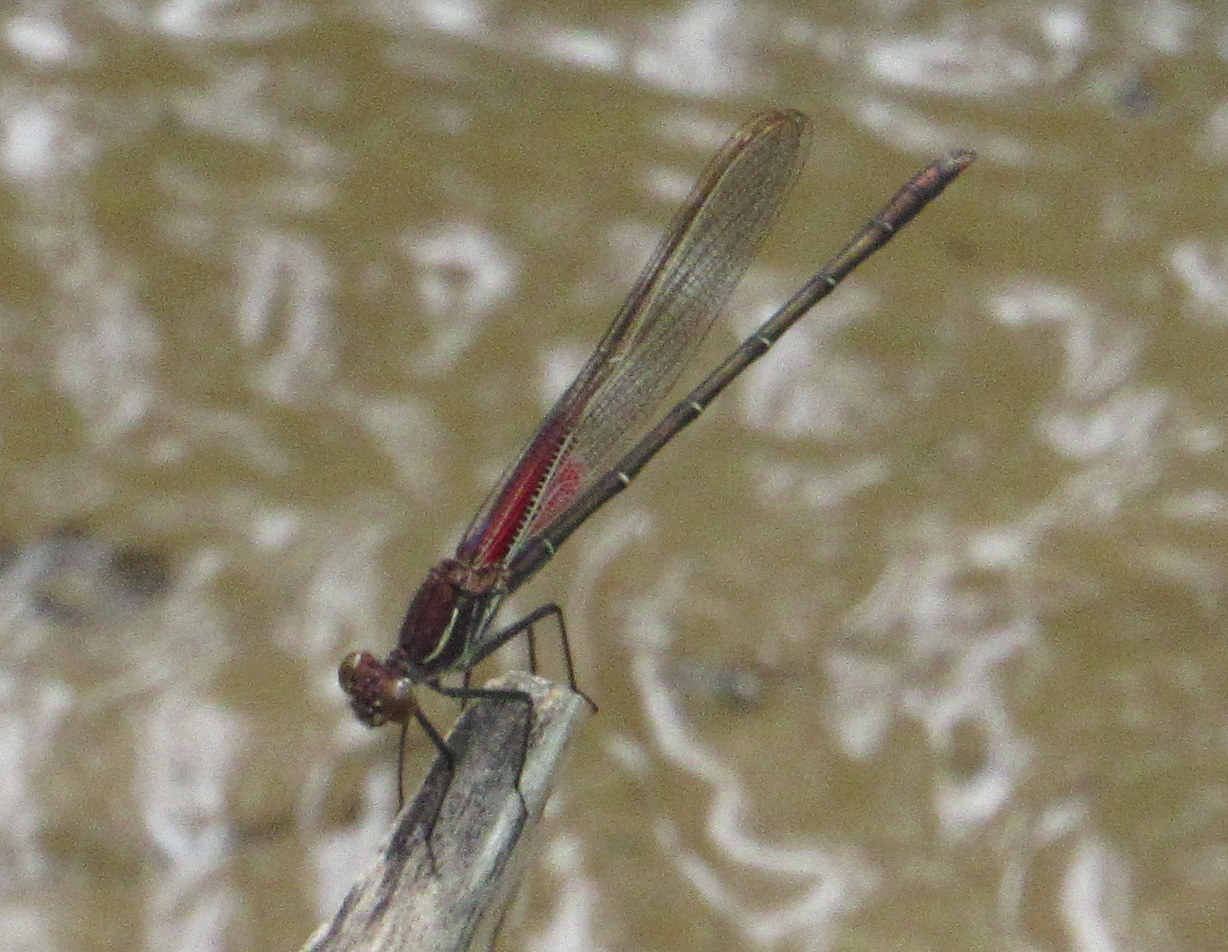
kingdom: Animalia
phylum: Arthropoda
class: Insecta
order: Odonata
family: Calopterygidae
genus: Hetaerina
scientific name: Hetaerina americana
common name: American rubyspot
